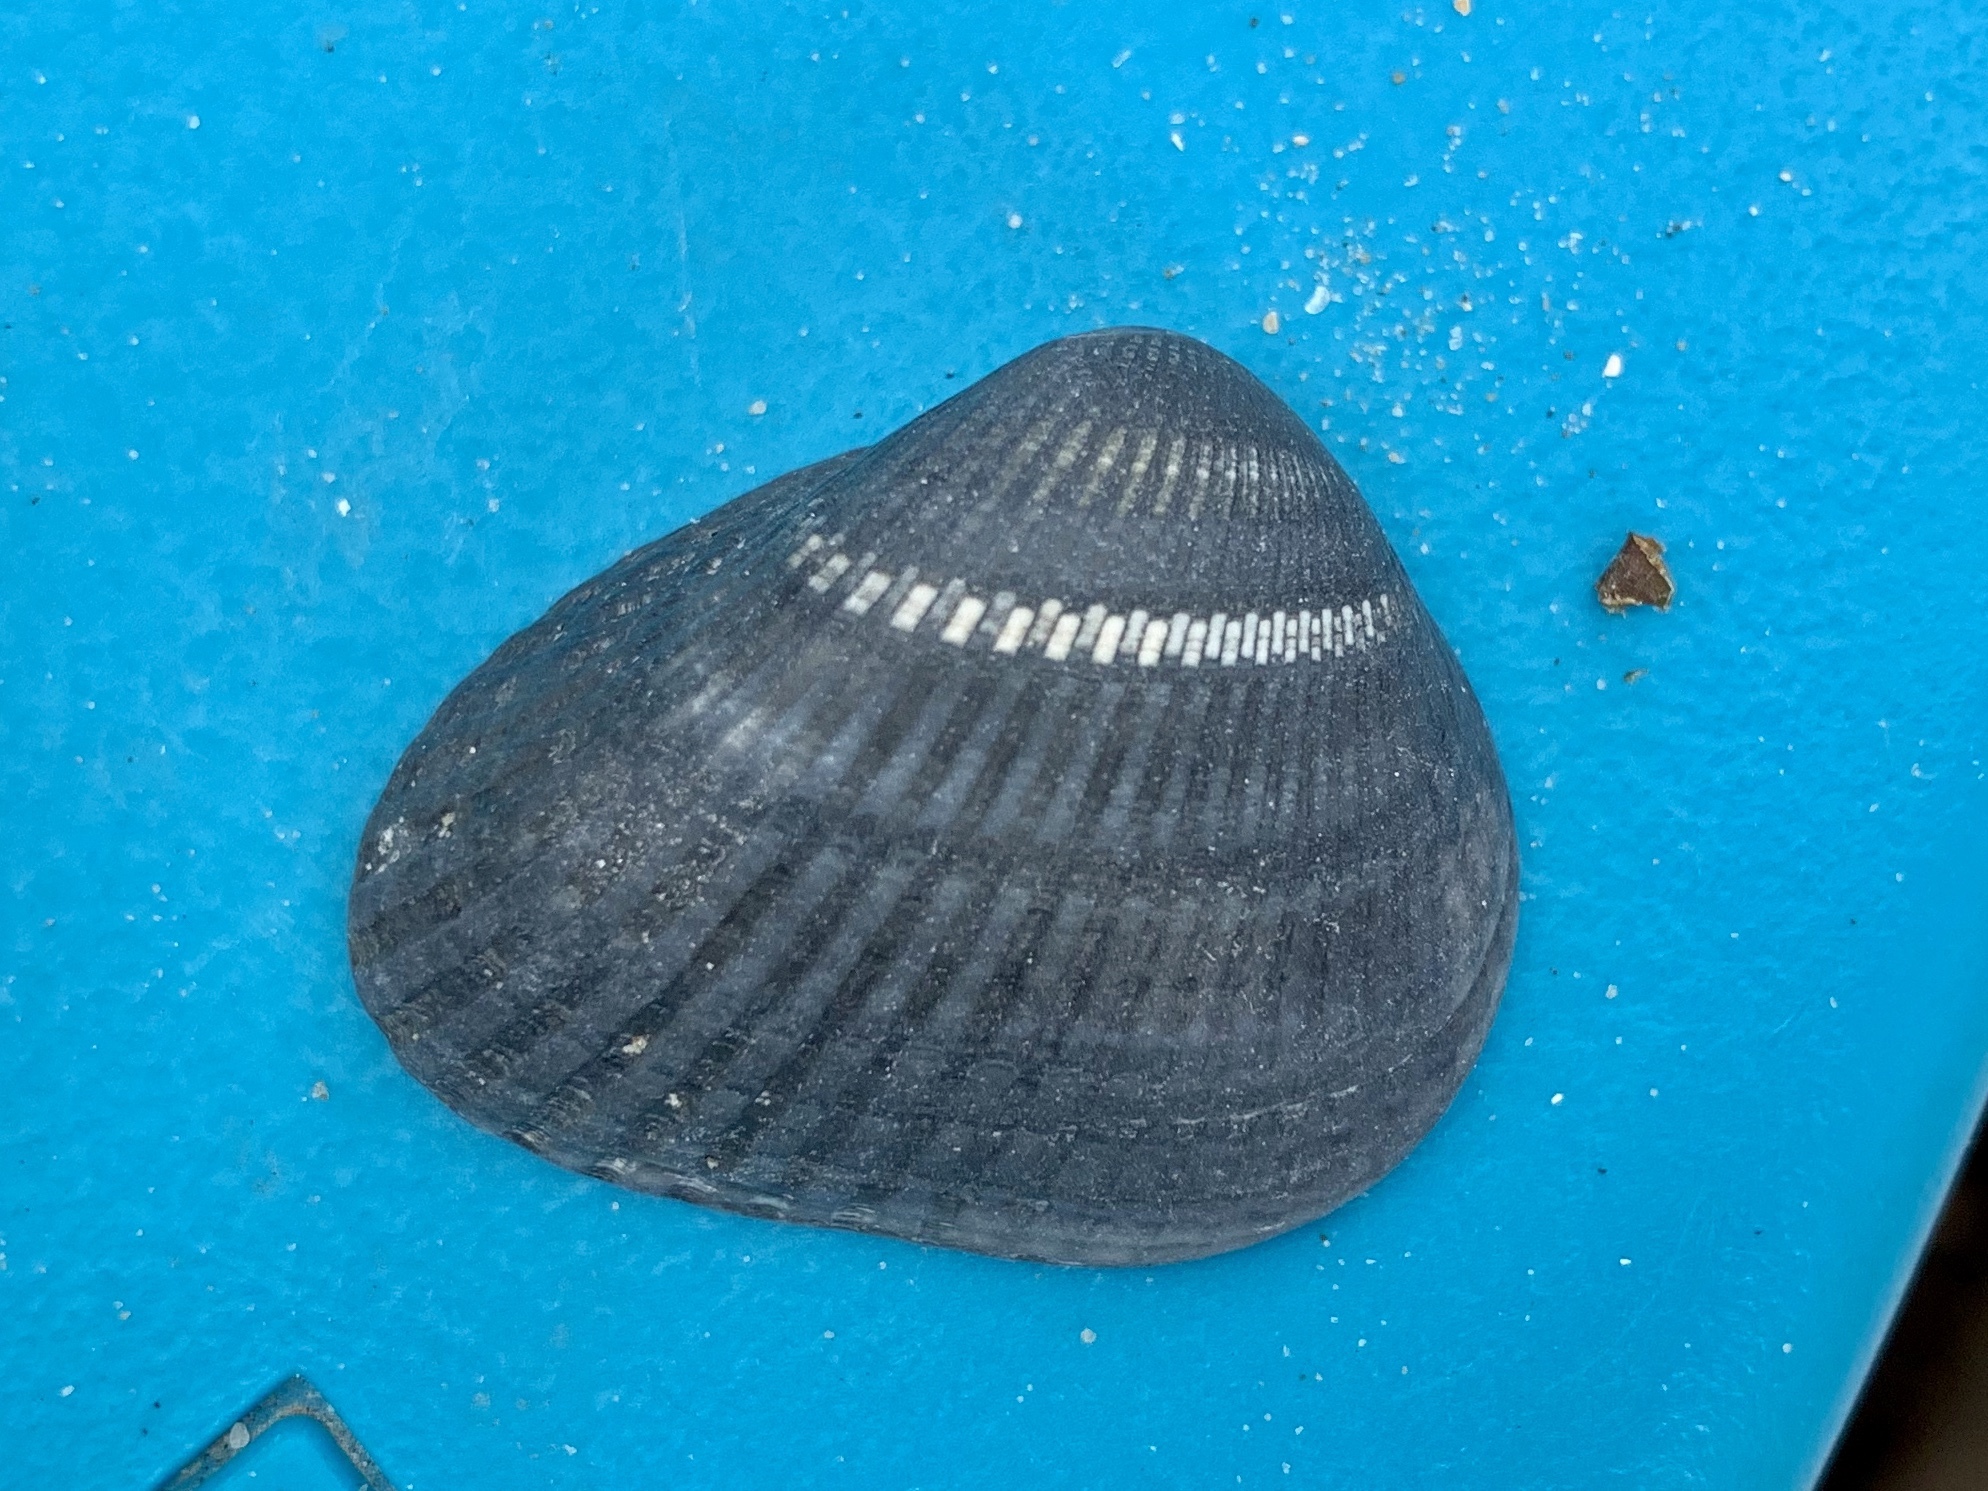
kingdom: Animalia
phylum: Mollusca
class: Bivalvia
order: Arcida
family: Noetiidae
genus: Noetia
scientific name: Noetia ponderosa
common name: Ponderous ark
